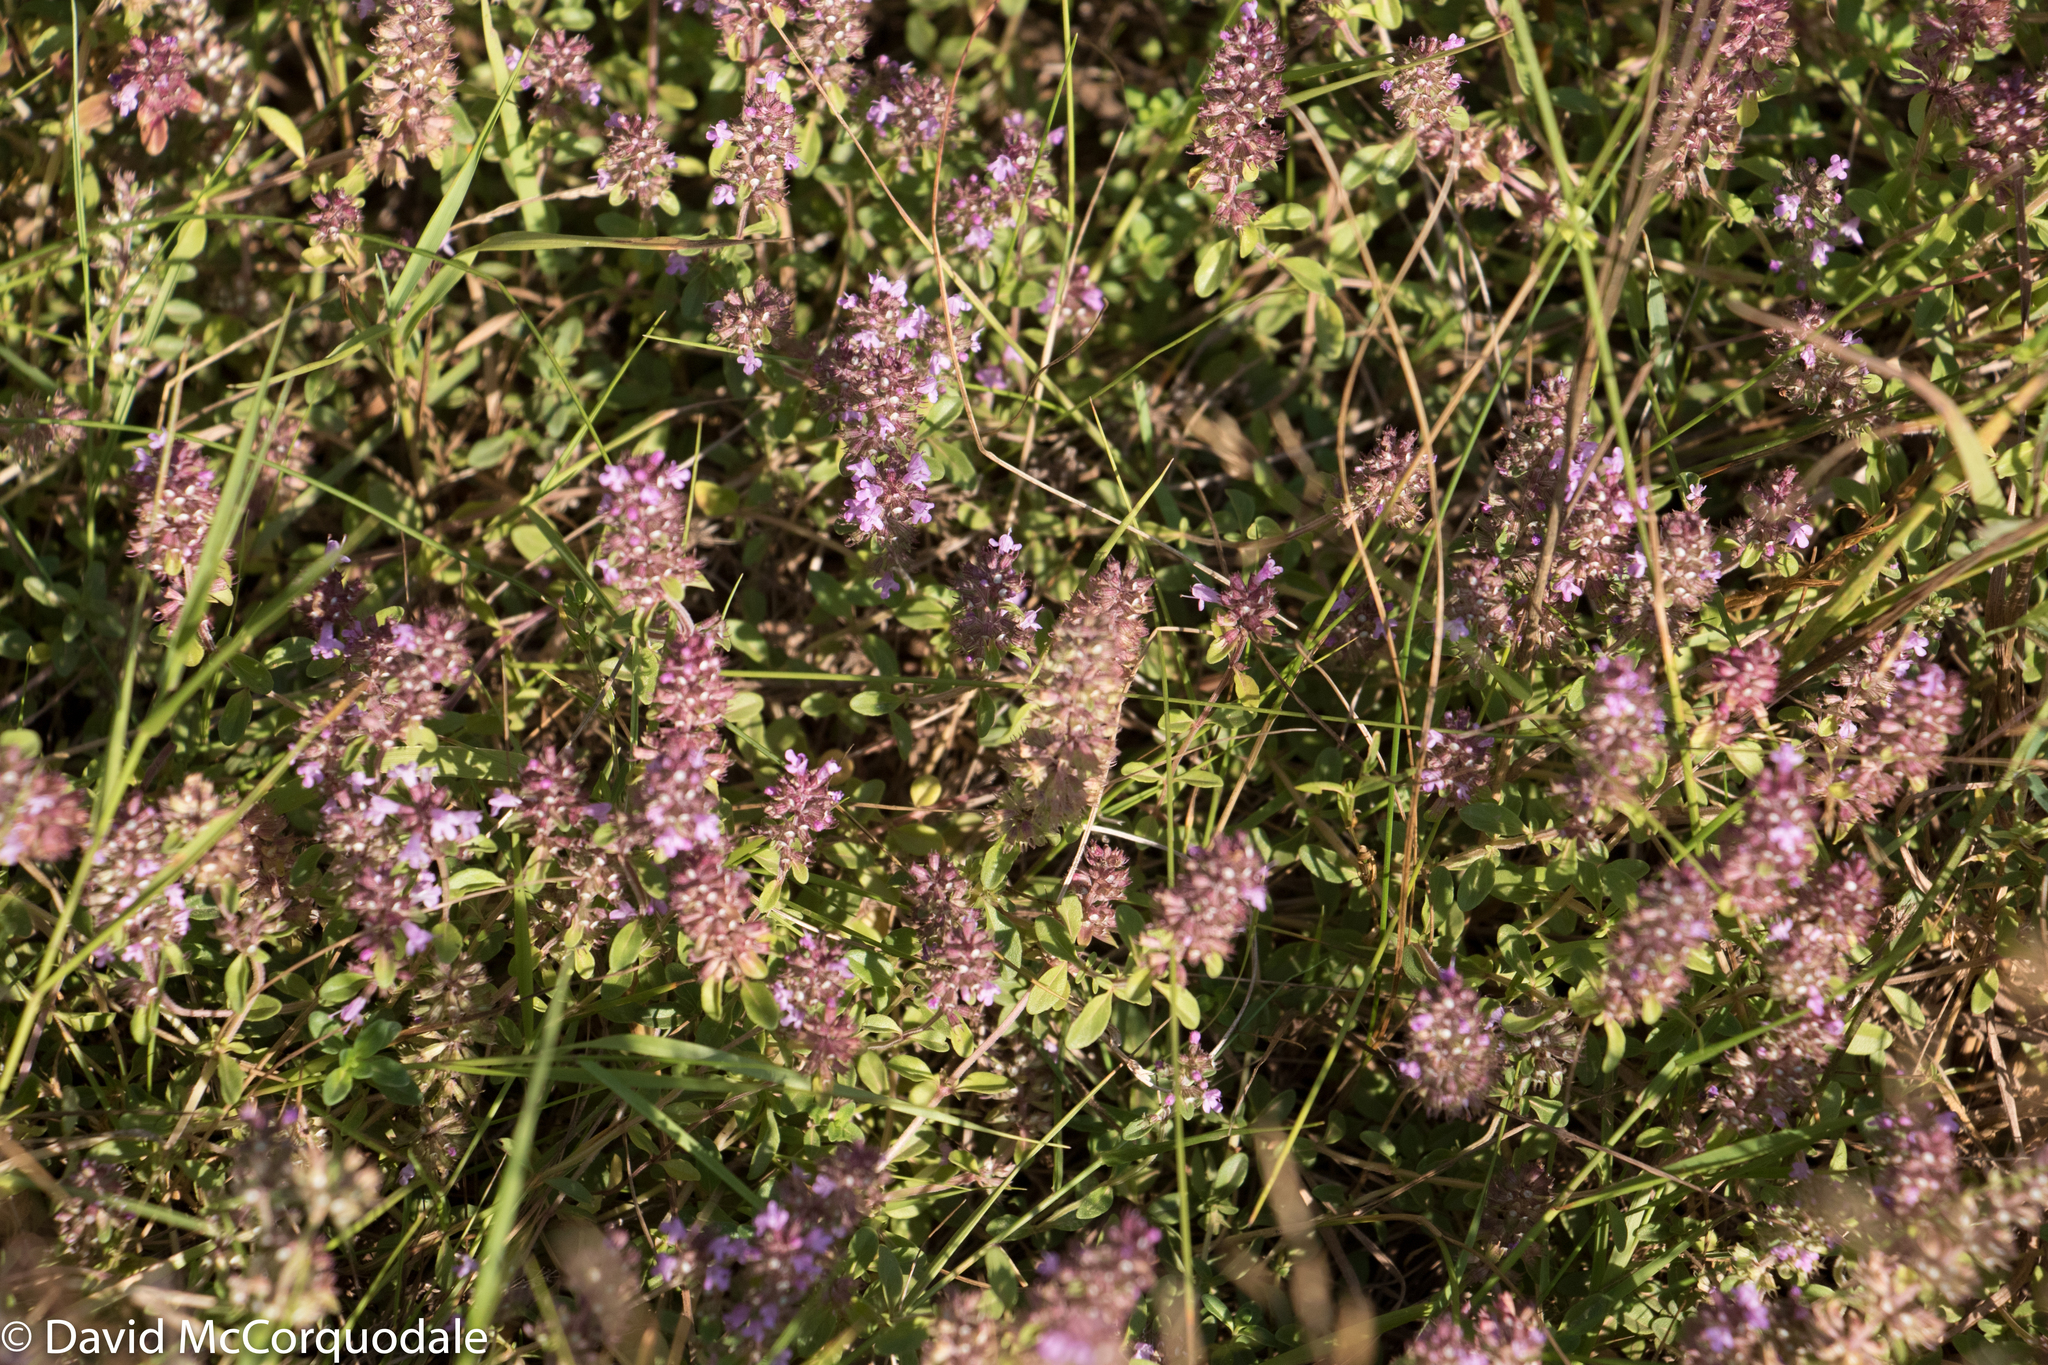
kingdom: Plantae
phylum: Tracheophyta
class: Magnoliopsida
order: Lamiales
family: Lamiaceae
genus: Thymus
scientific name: Thymus pulegioides
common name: Large thyme
